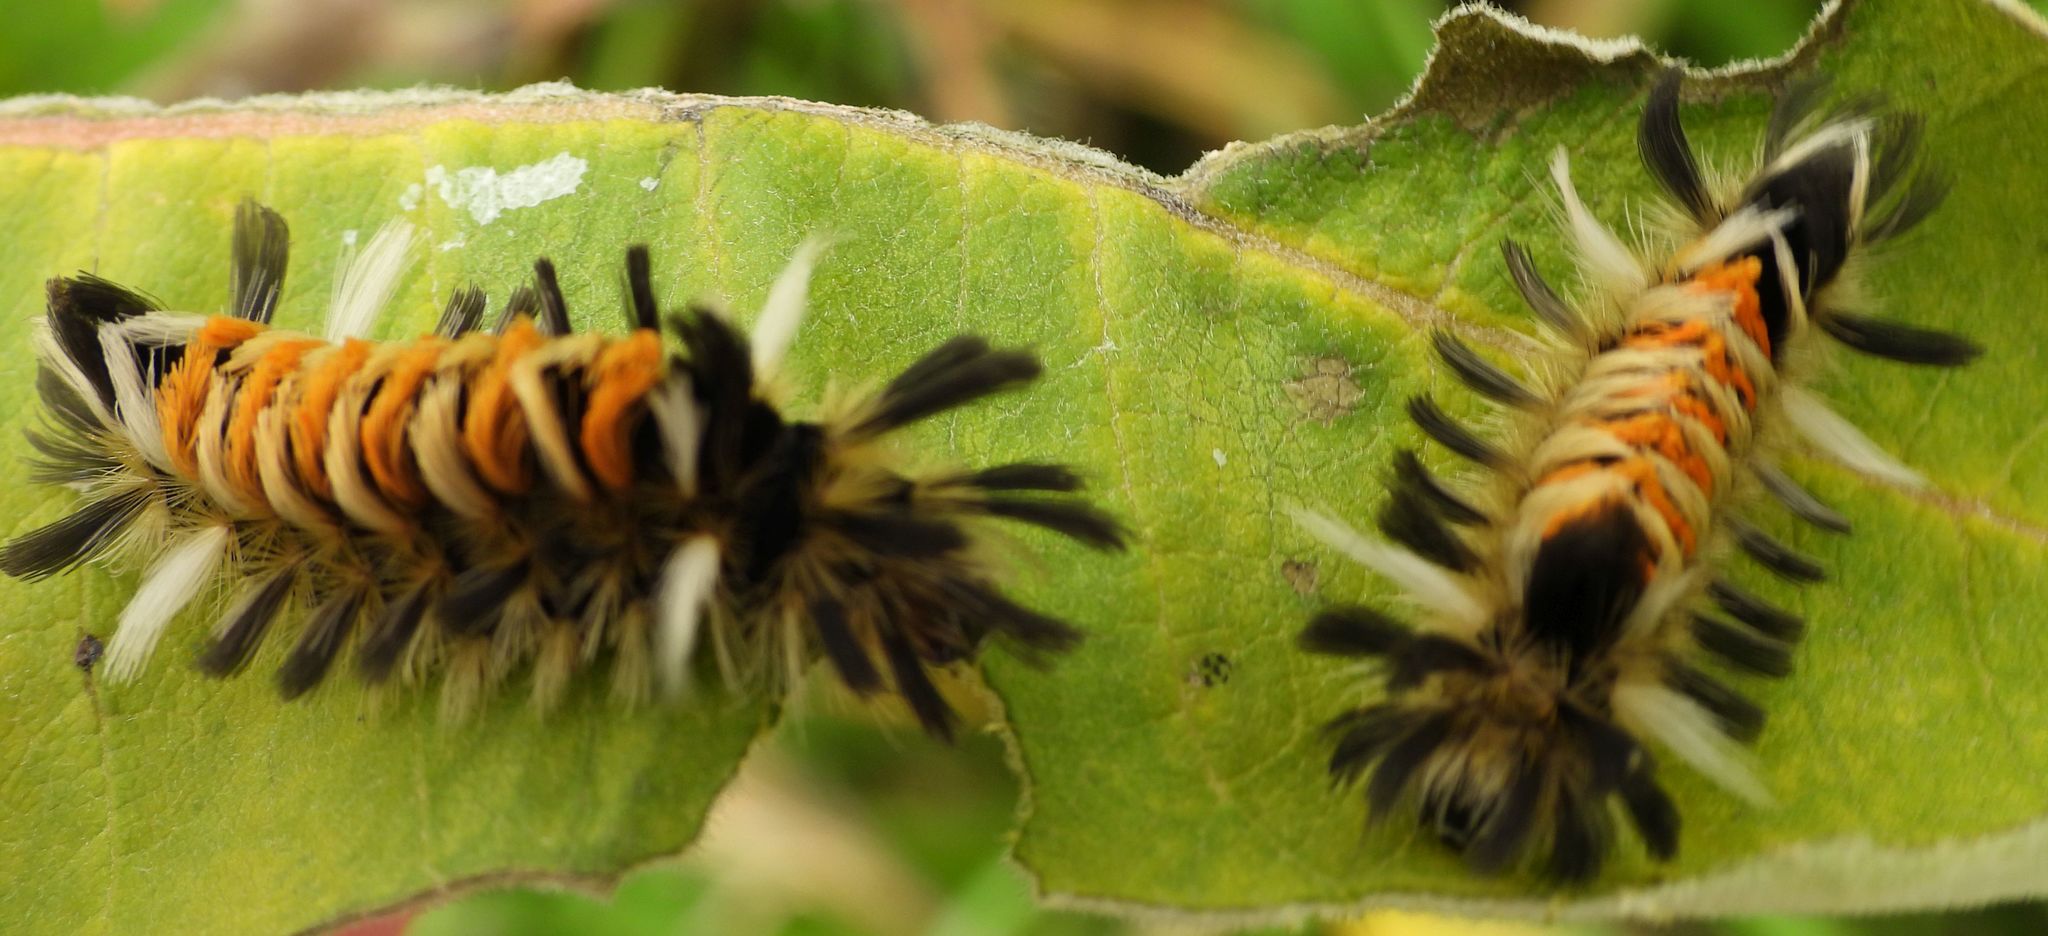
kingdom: Animalia
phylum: Arthropoda
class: Insecta
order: Lepidoptera
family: Erebidae
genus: Euchaetes
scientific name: Euchaetes egle
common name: Milkweed tussock moth
